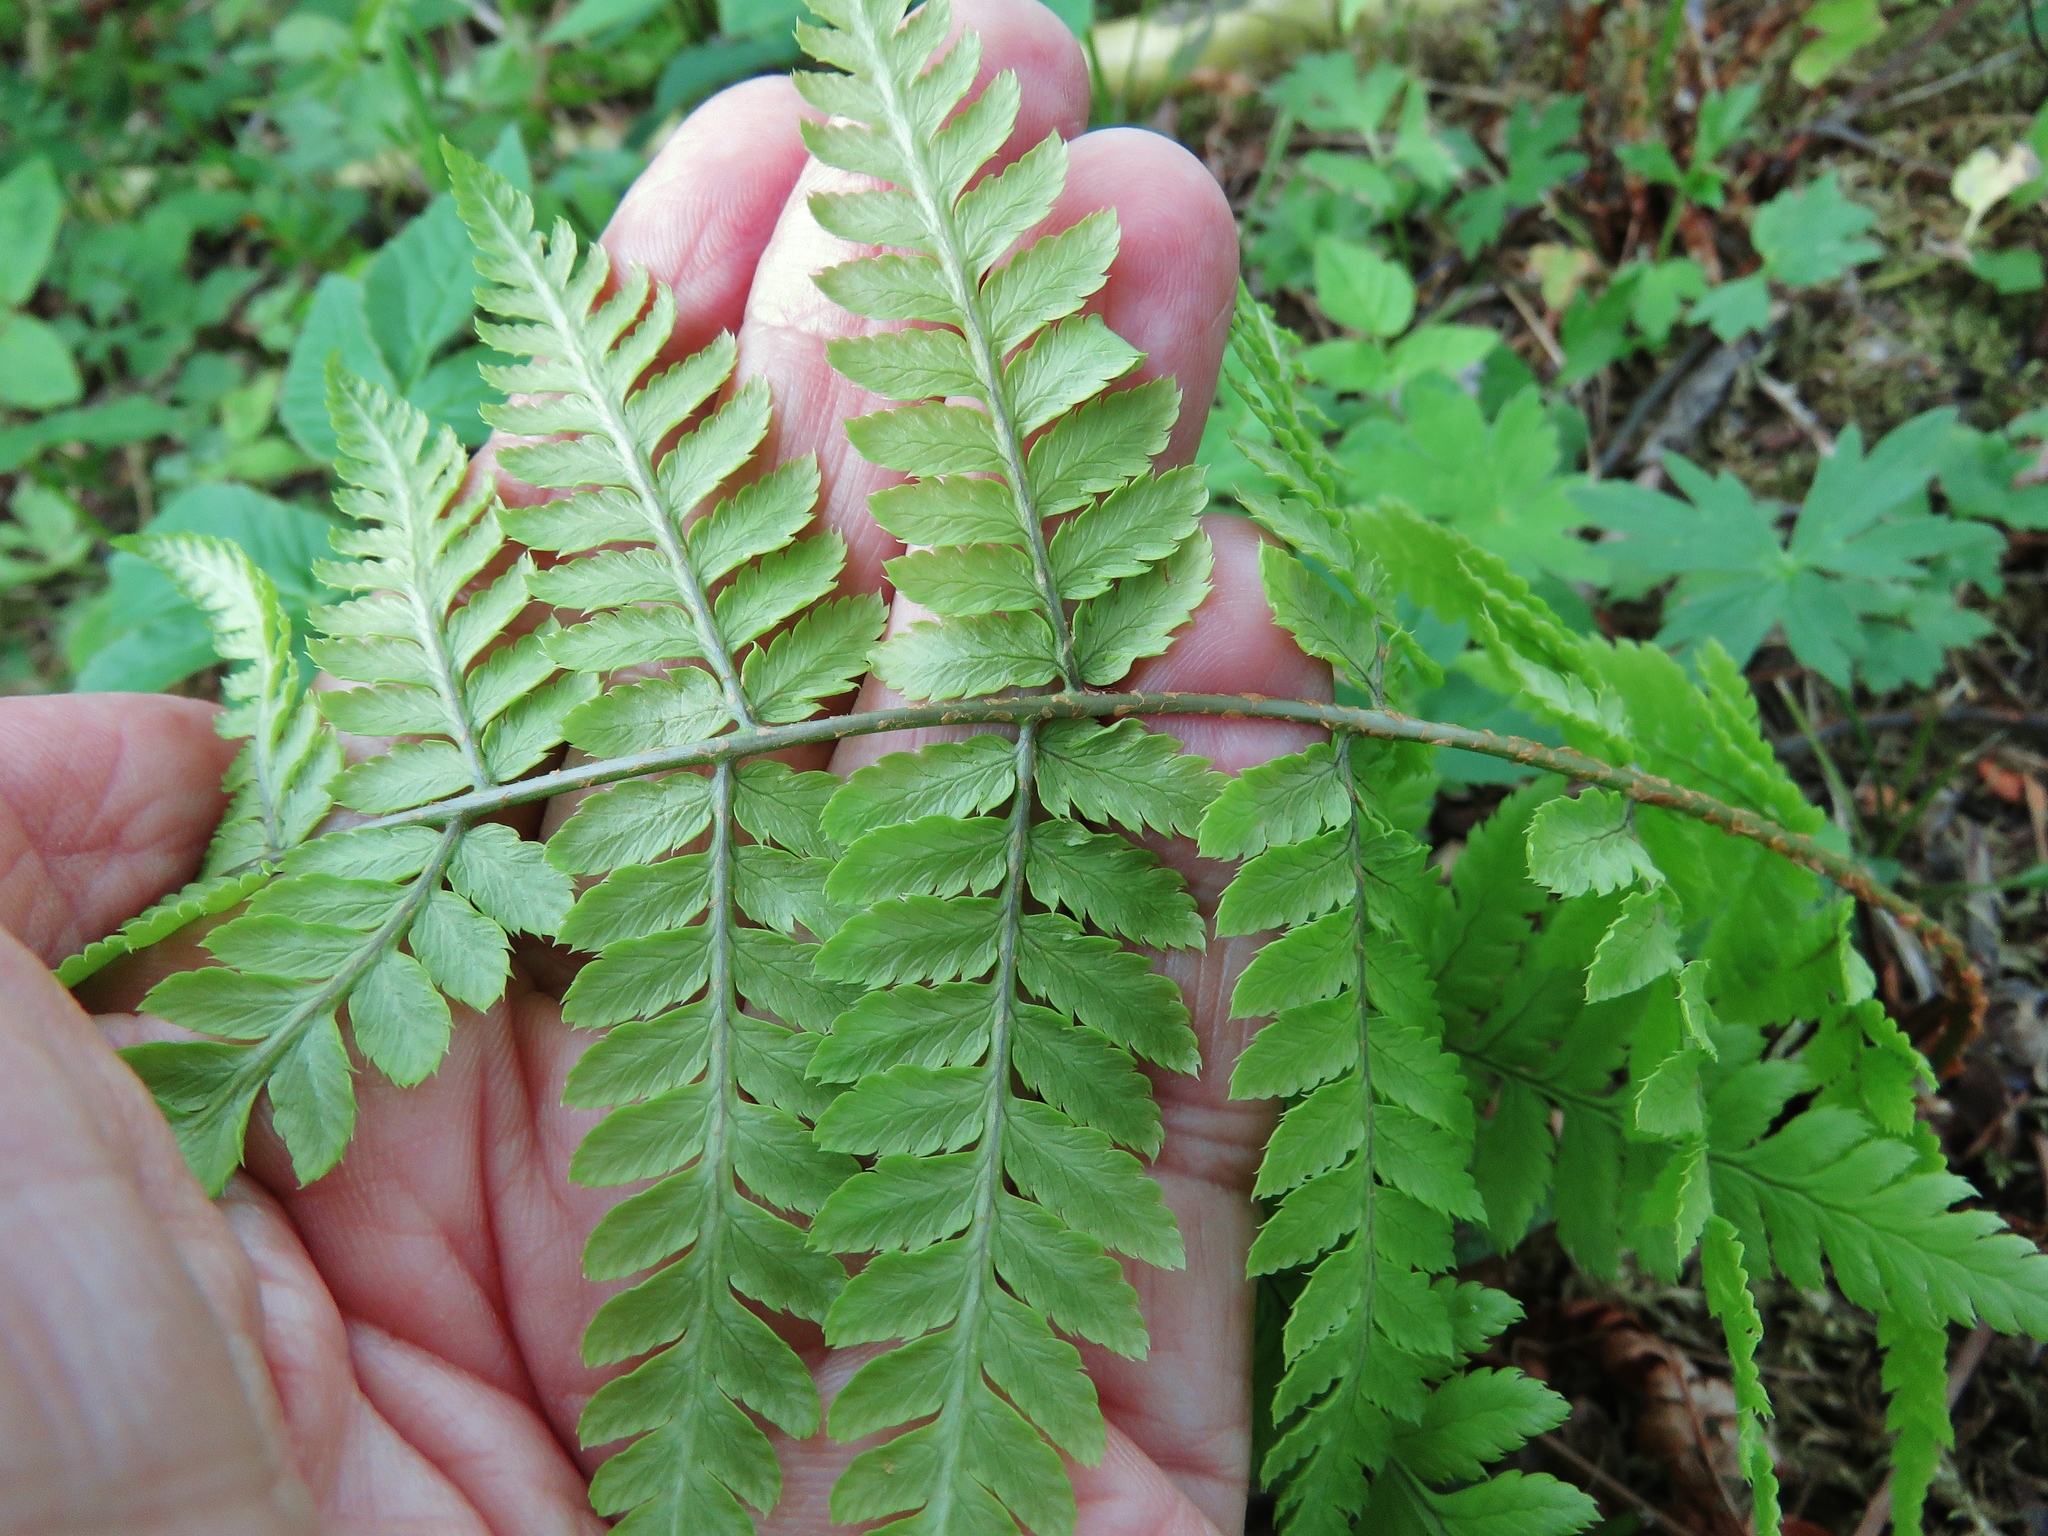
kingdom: Plantae
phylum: Tracheophyta
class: Polypodiopsida
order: Polypodiales
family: Dryopteridaceae
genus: Dryopteris
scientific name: Dryopteris carthusiana
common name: Narrow buckler-fern
